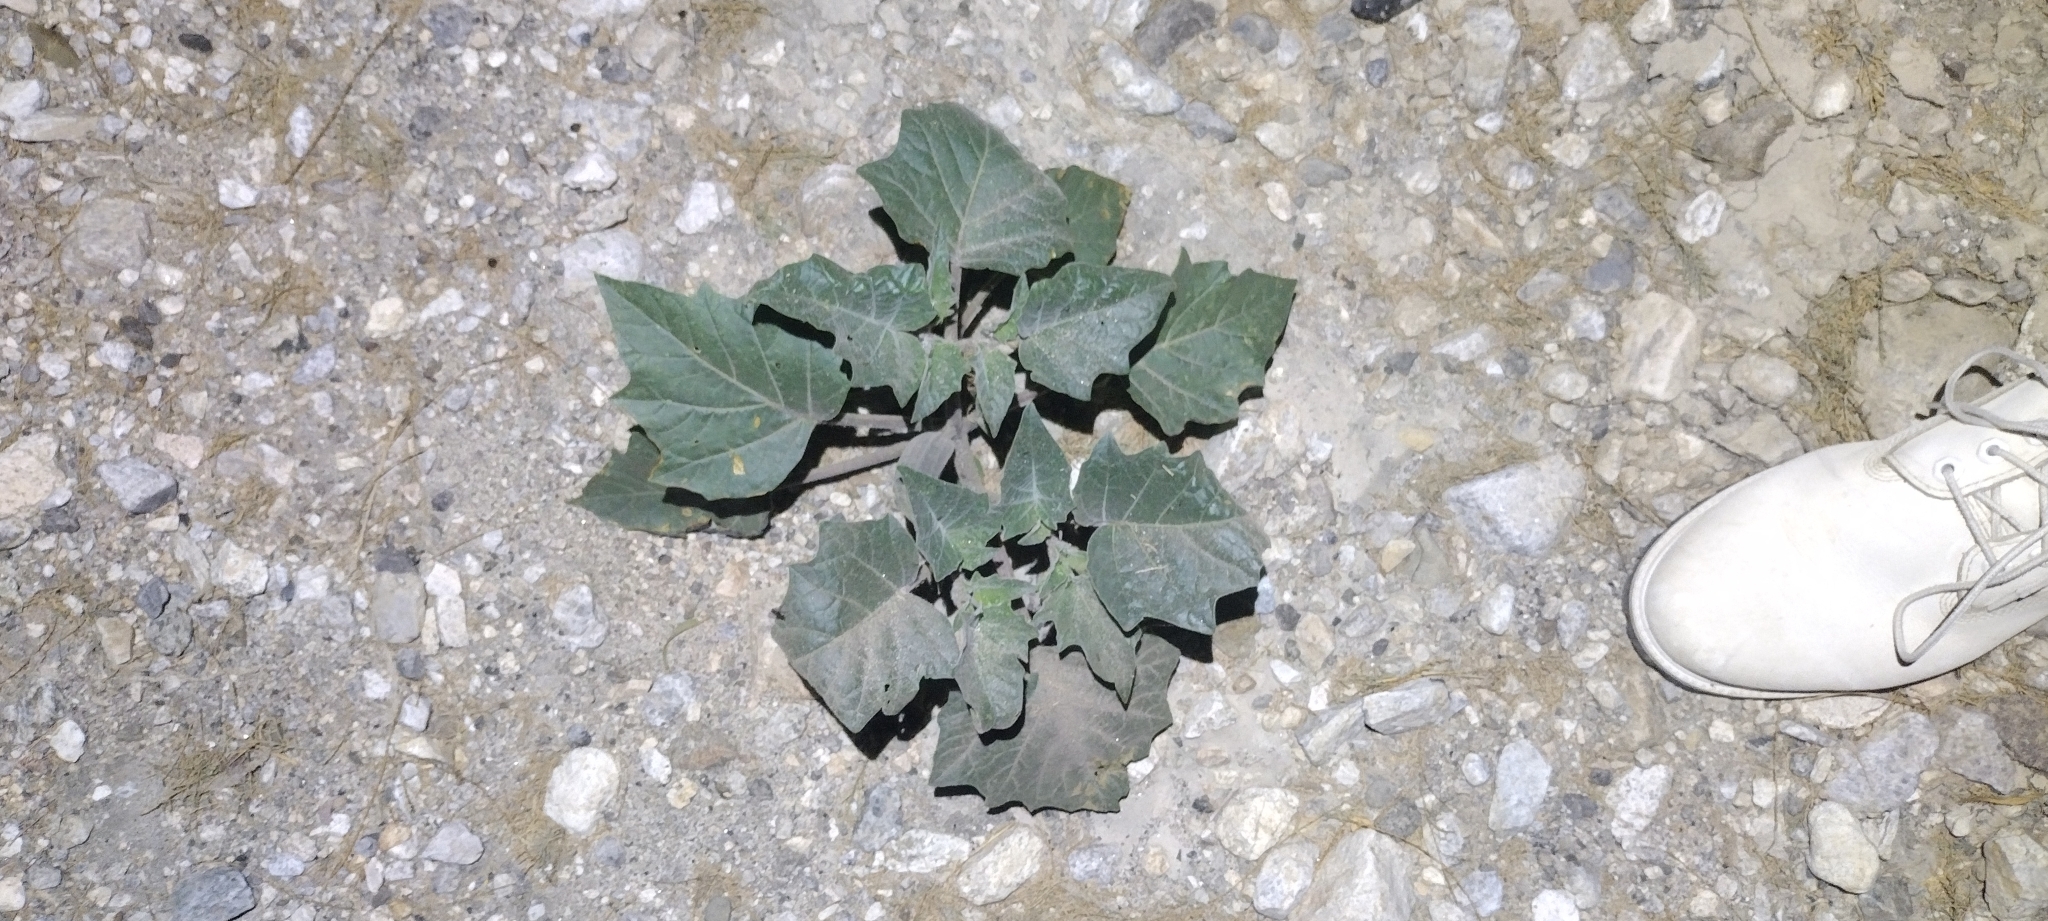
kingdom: Plantae
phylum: Tracheophyta
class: Magnoliopsida
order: Solanales
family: Solanaceae
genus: Datura
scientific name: Datura wrightii
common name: Sacred thorn-apple
